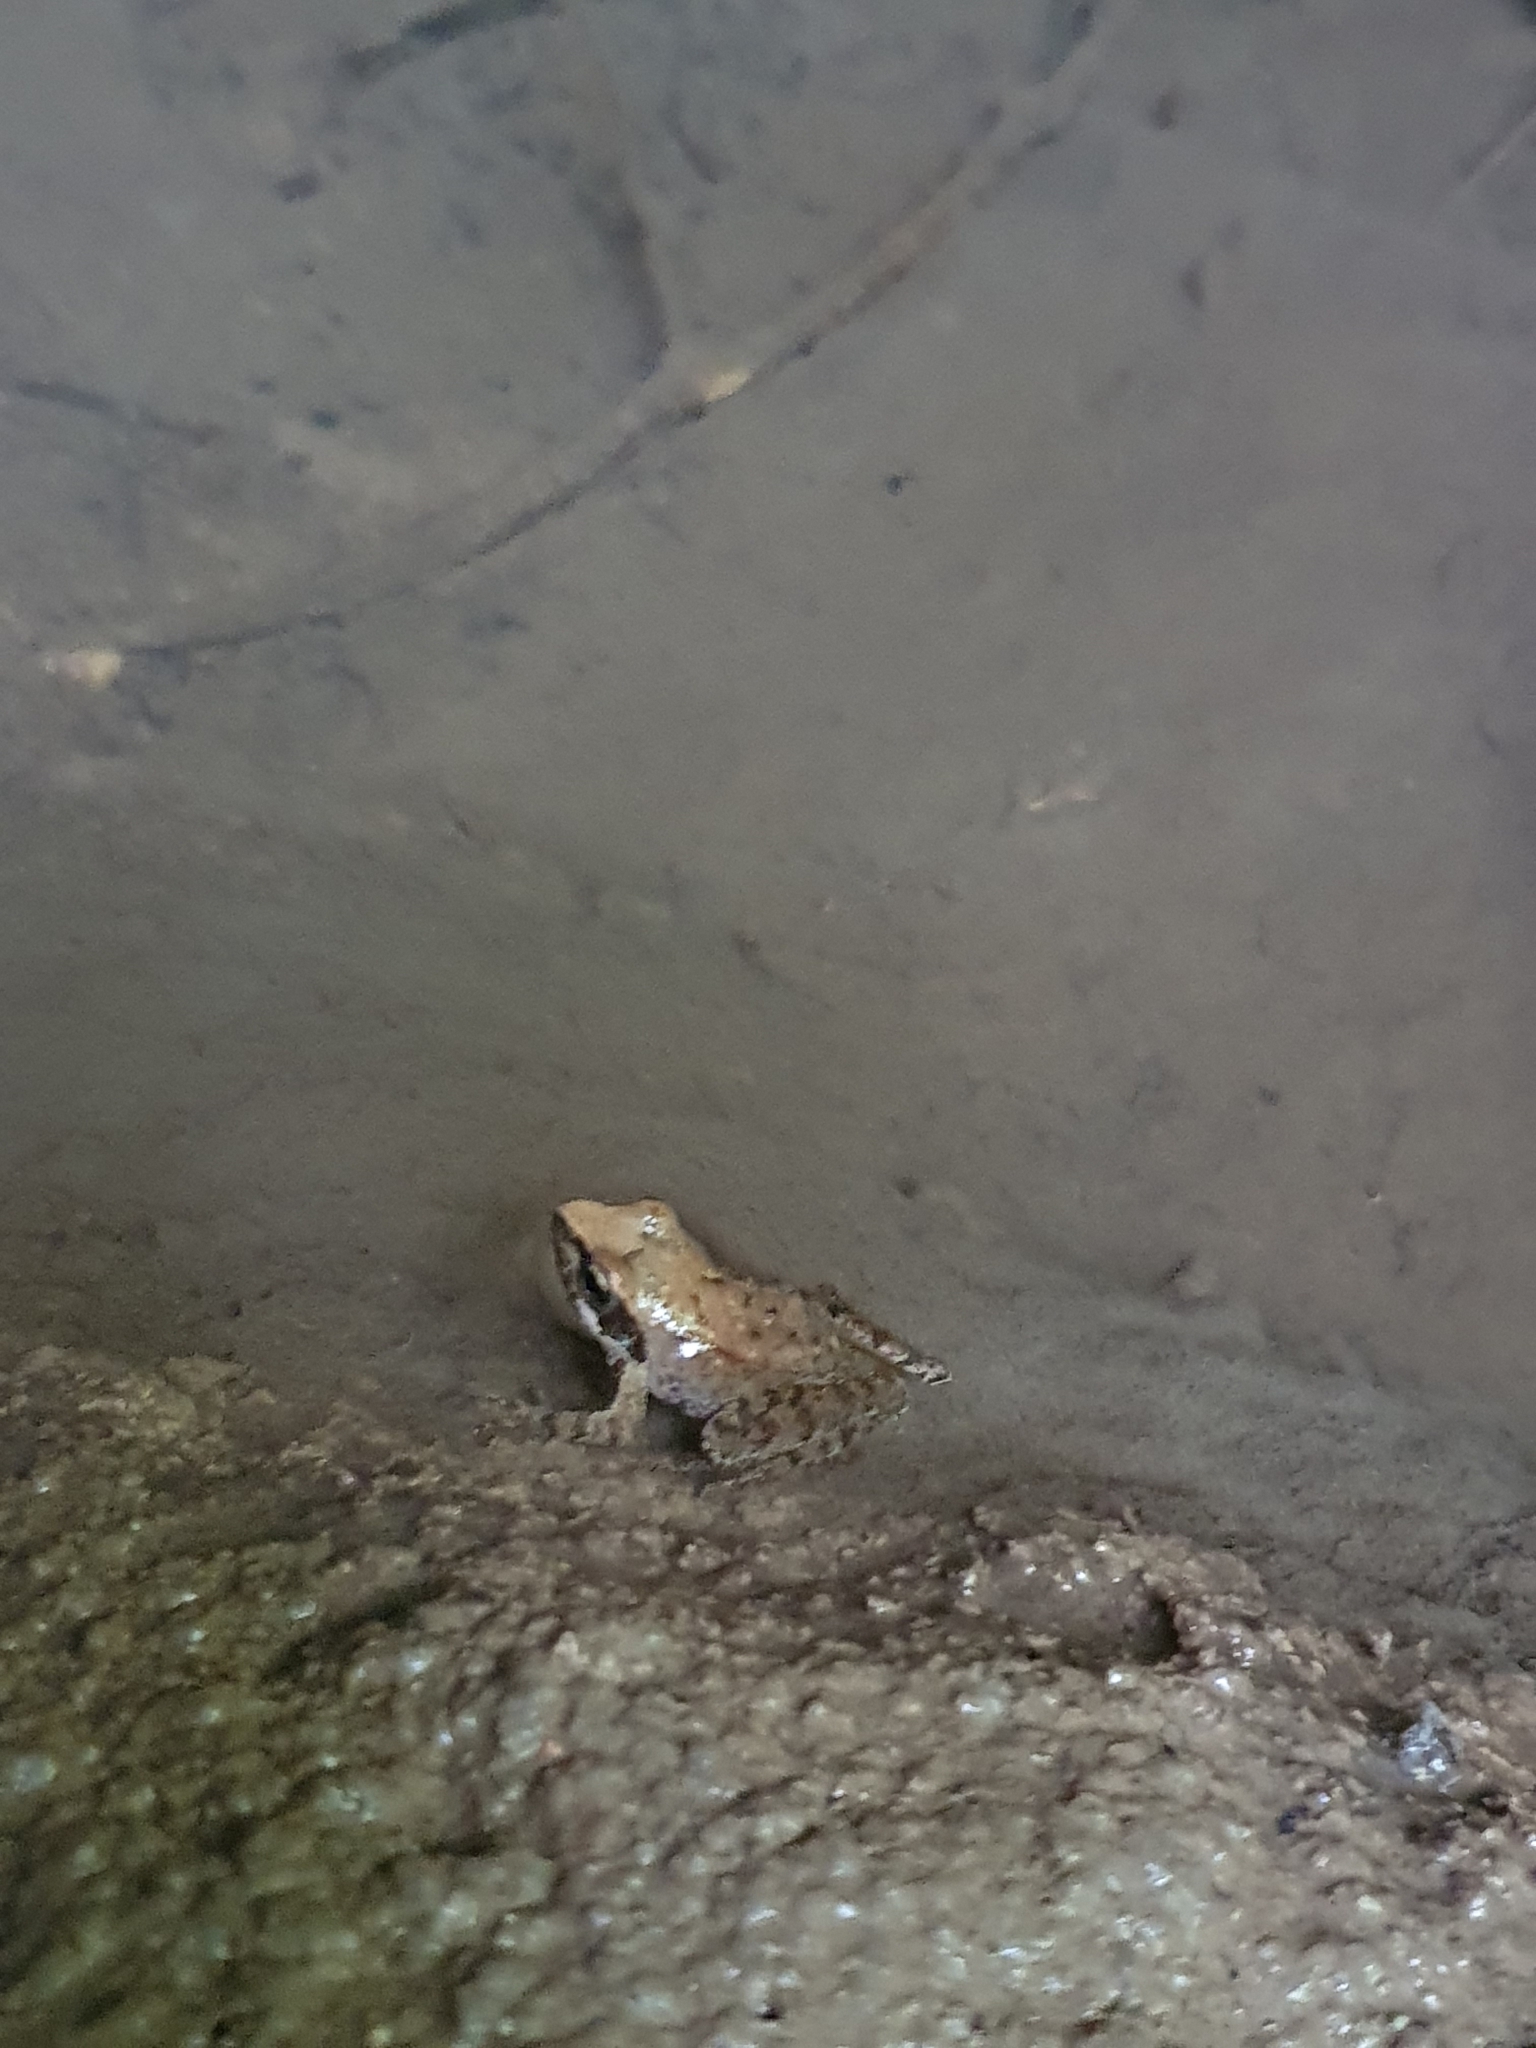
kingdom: Animalia
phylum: Chordata
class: Amphibia
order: Anura
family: Ranidae
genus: Rana
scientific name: Rana italica
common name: Italian stream frog
